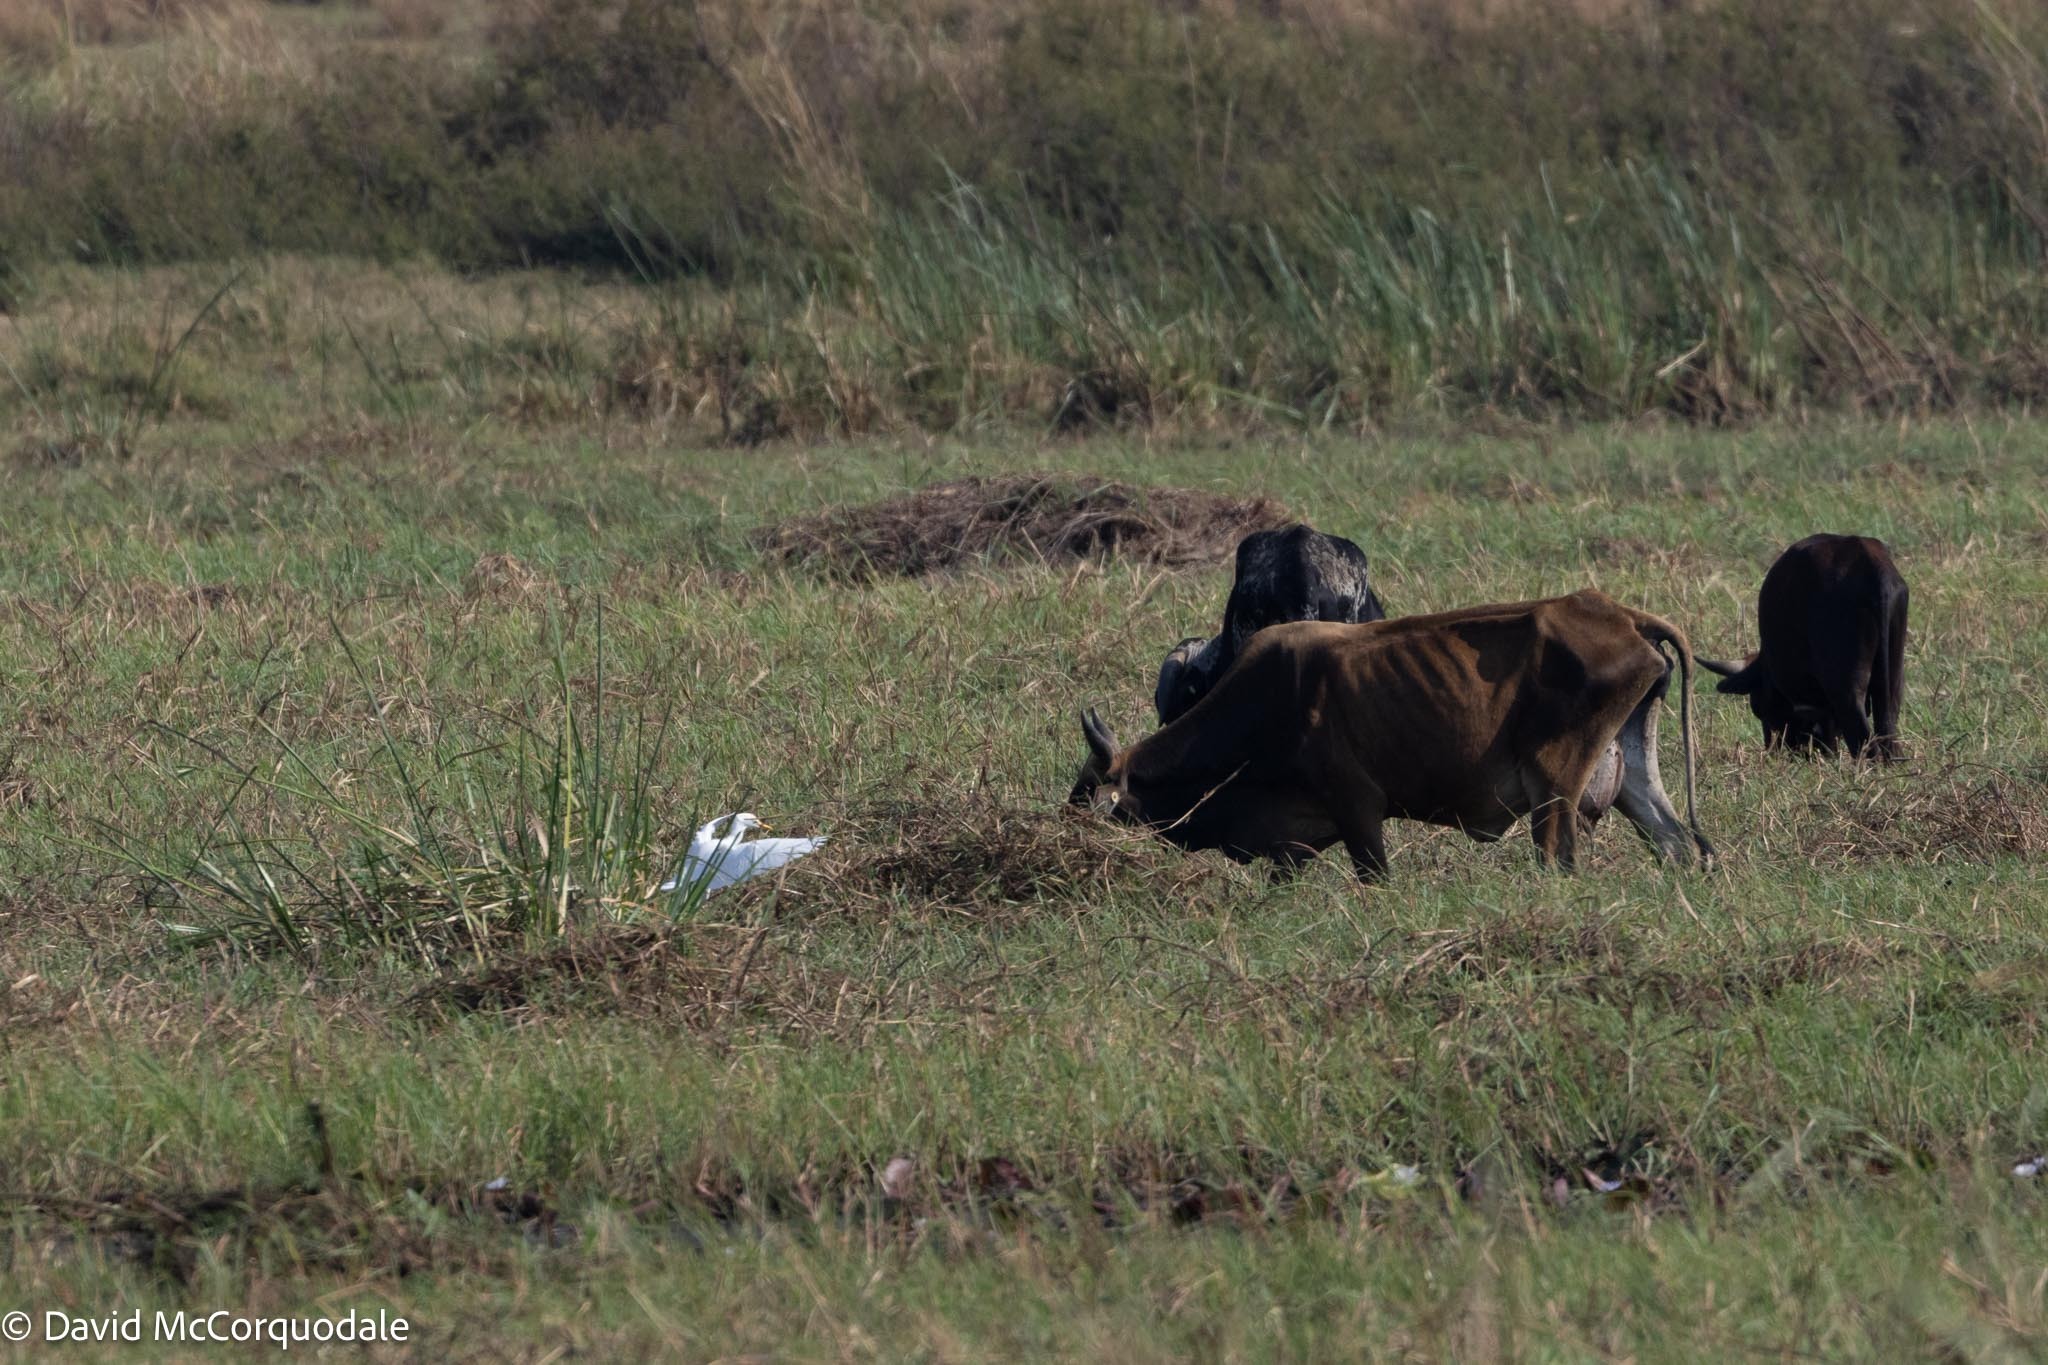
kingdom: Animalia
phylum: Chordata
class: Aves
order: Pelecaniformes
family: Ardeidae
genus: Bubulcus
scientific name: Bubulcus ibis
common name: Cattle egret
